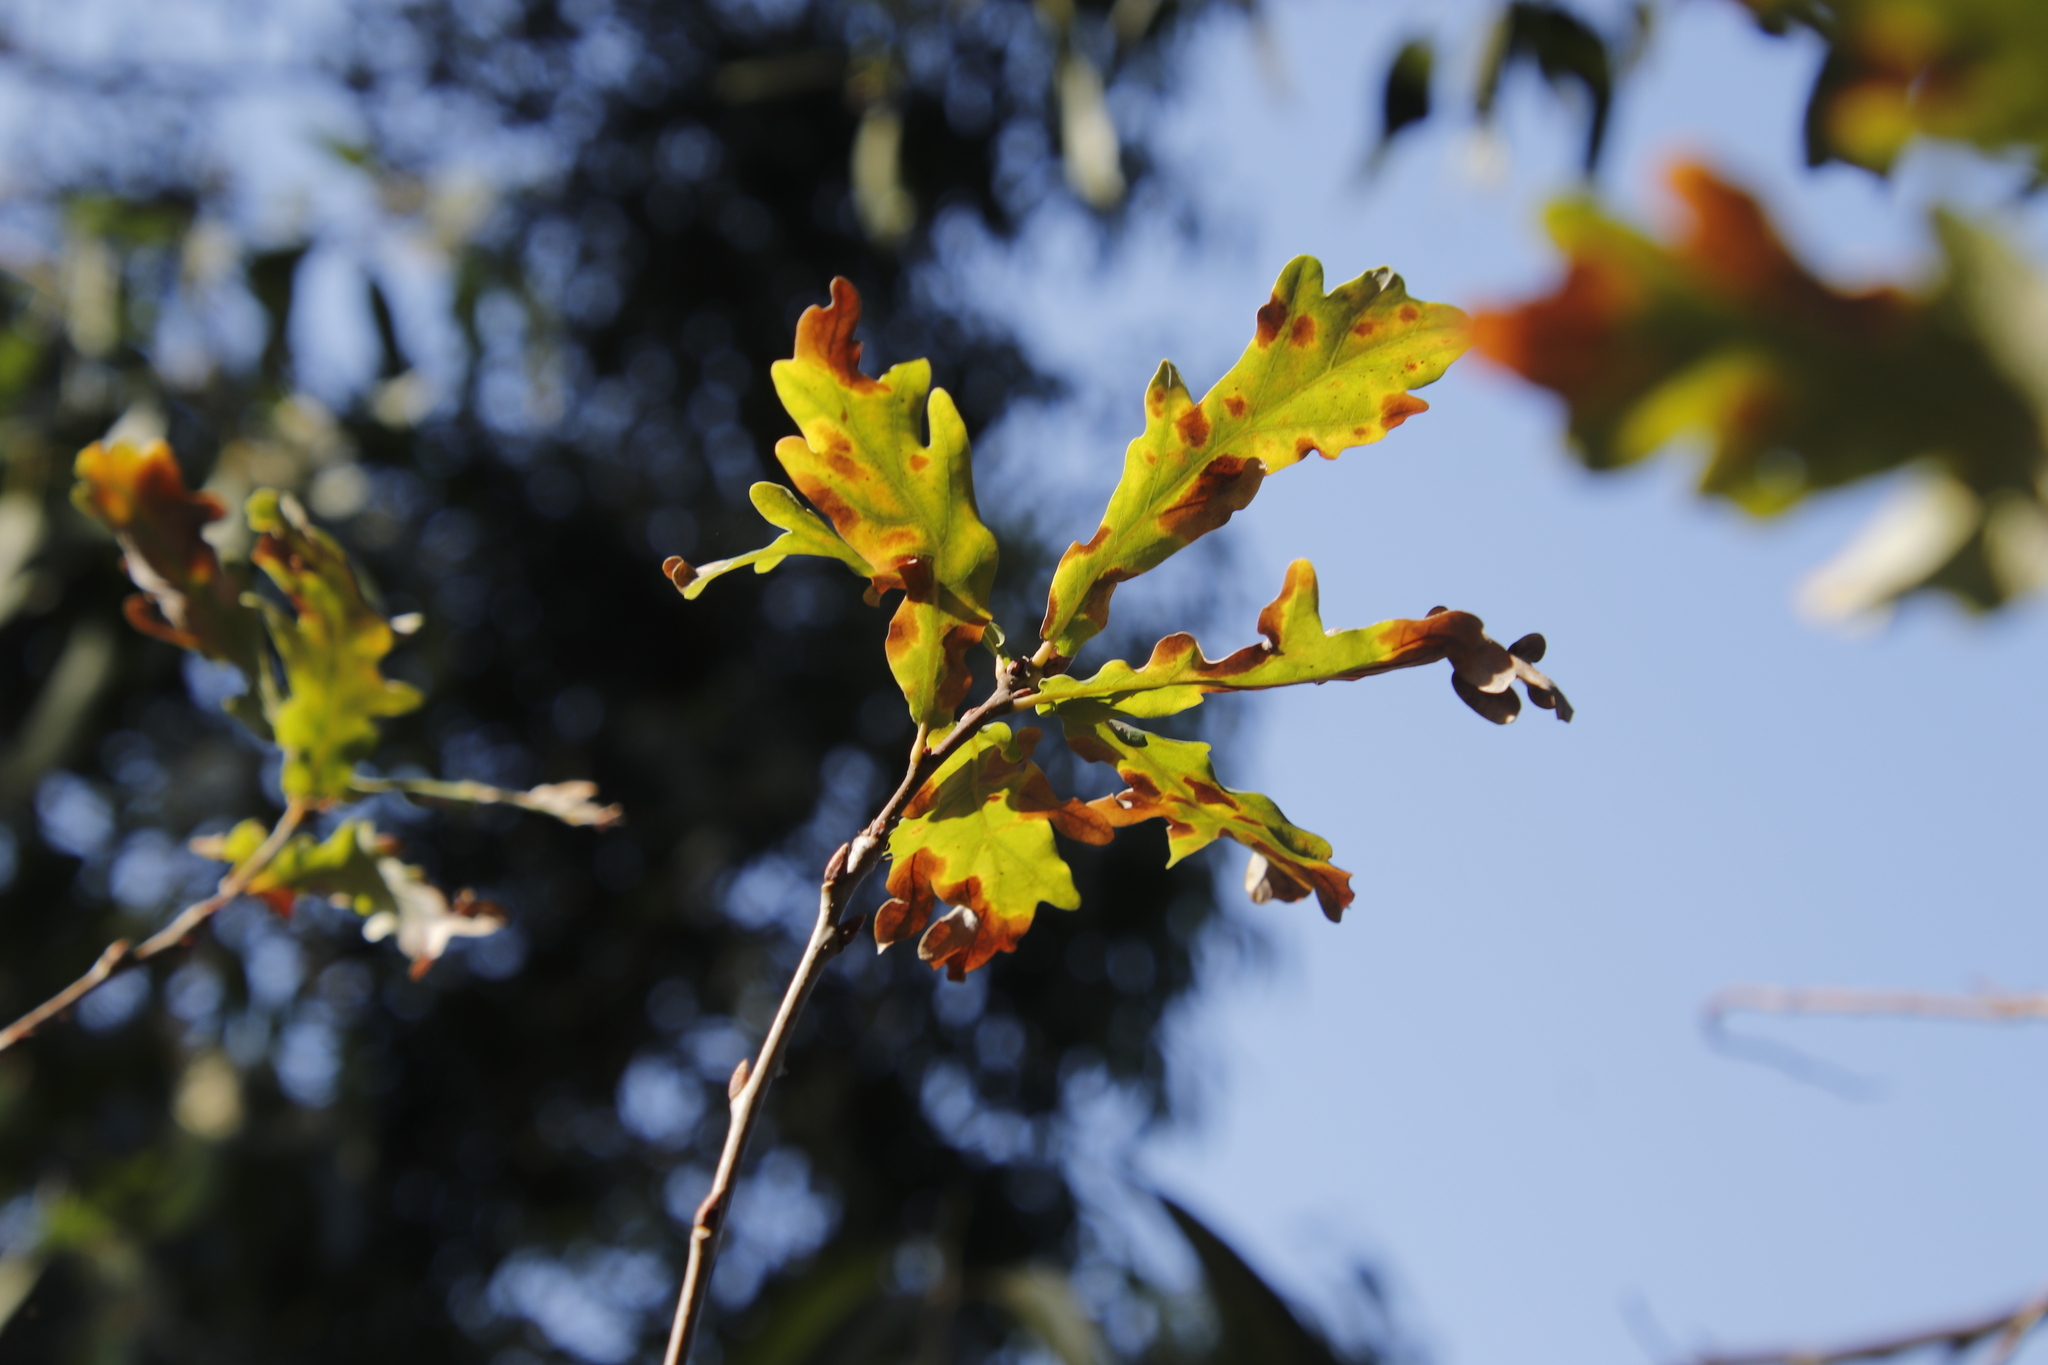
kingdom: Plantae
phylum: Tracheophyta
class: Magnoliopsida
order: Fagales
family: Fagaceae
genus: Quercus
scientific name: Quercus robur
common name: Pedunculate oak
